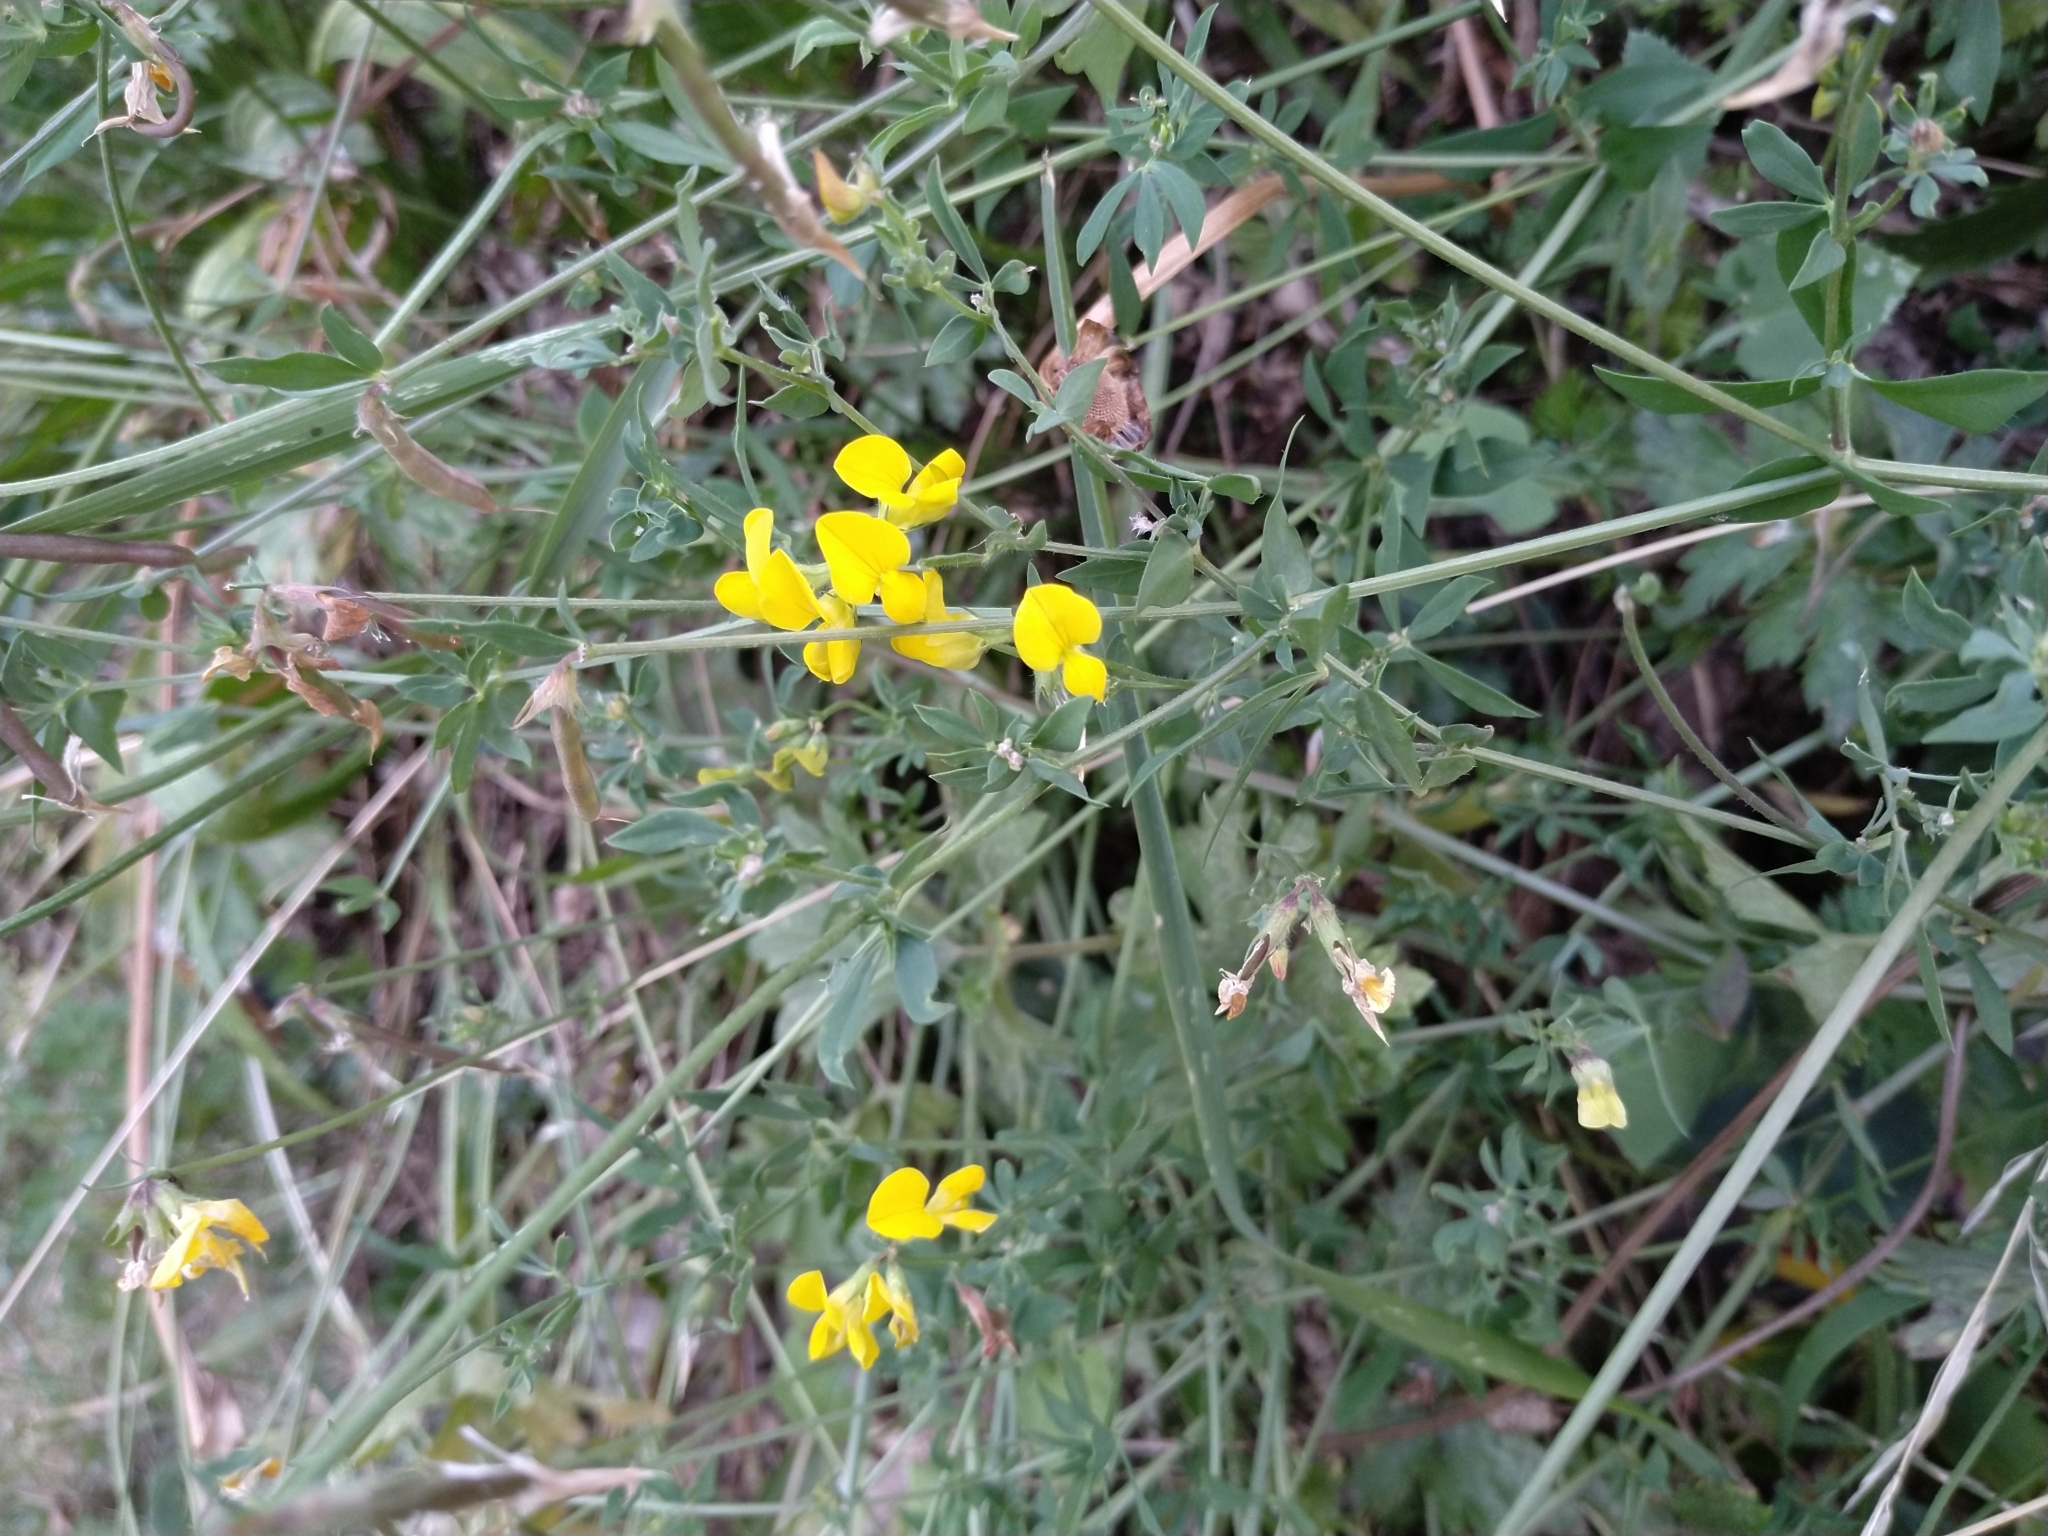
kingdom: Plantae
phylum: Tracheophyta
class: Magnoliopsida
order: Fabales
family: Fabaceae
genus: Lotus
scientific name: Lotus corniculatus
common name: Common bird's-foot-trefoil
